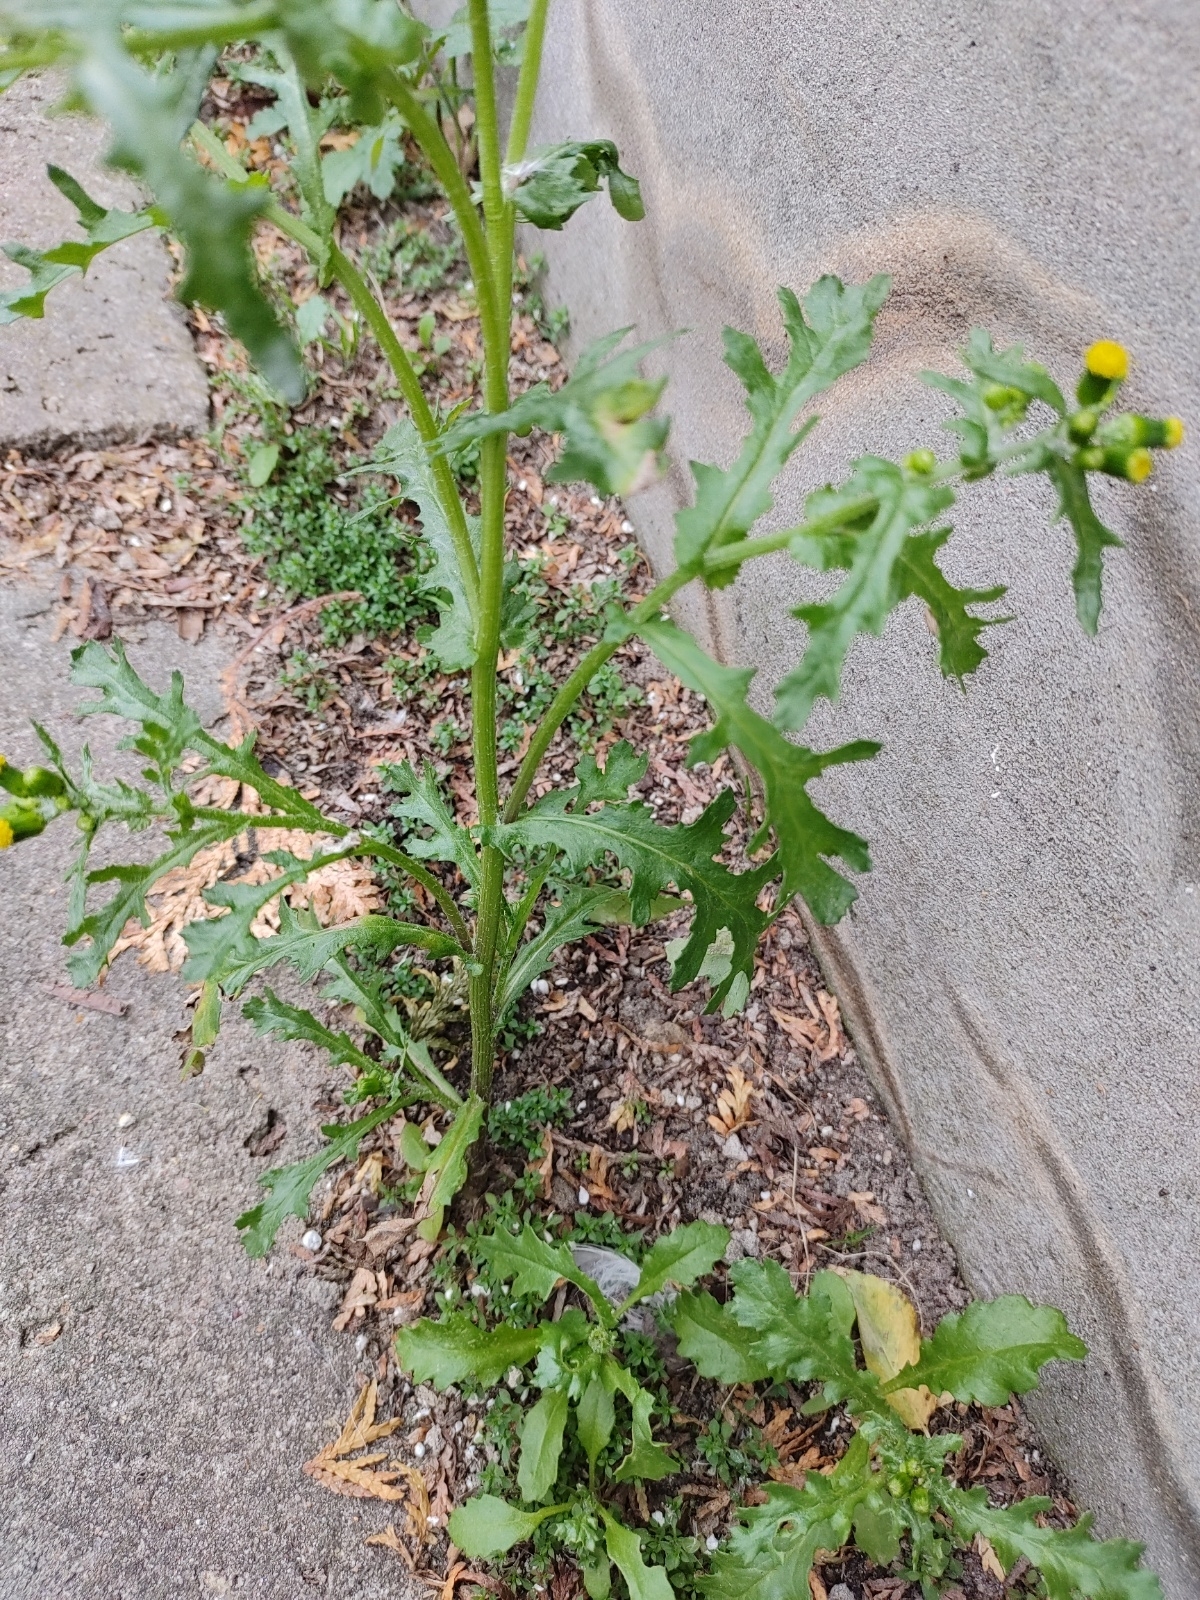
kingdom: Plantae
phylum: Tracheophyta
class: Magnoliopsida
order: Asterales
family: Asteraceae
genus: Senecio
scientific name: Senecio vulgaris
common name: Old-man-in-the-spring
